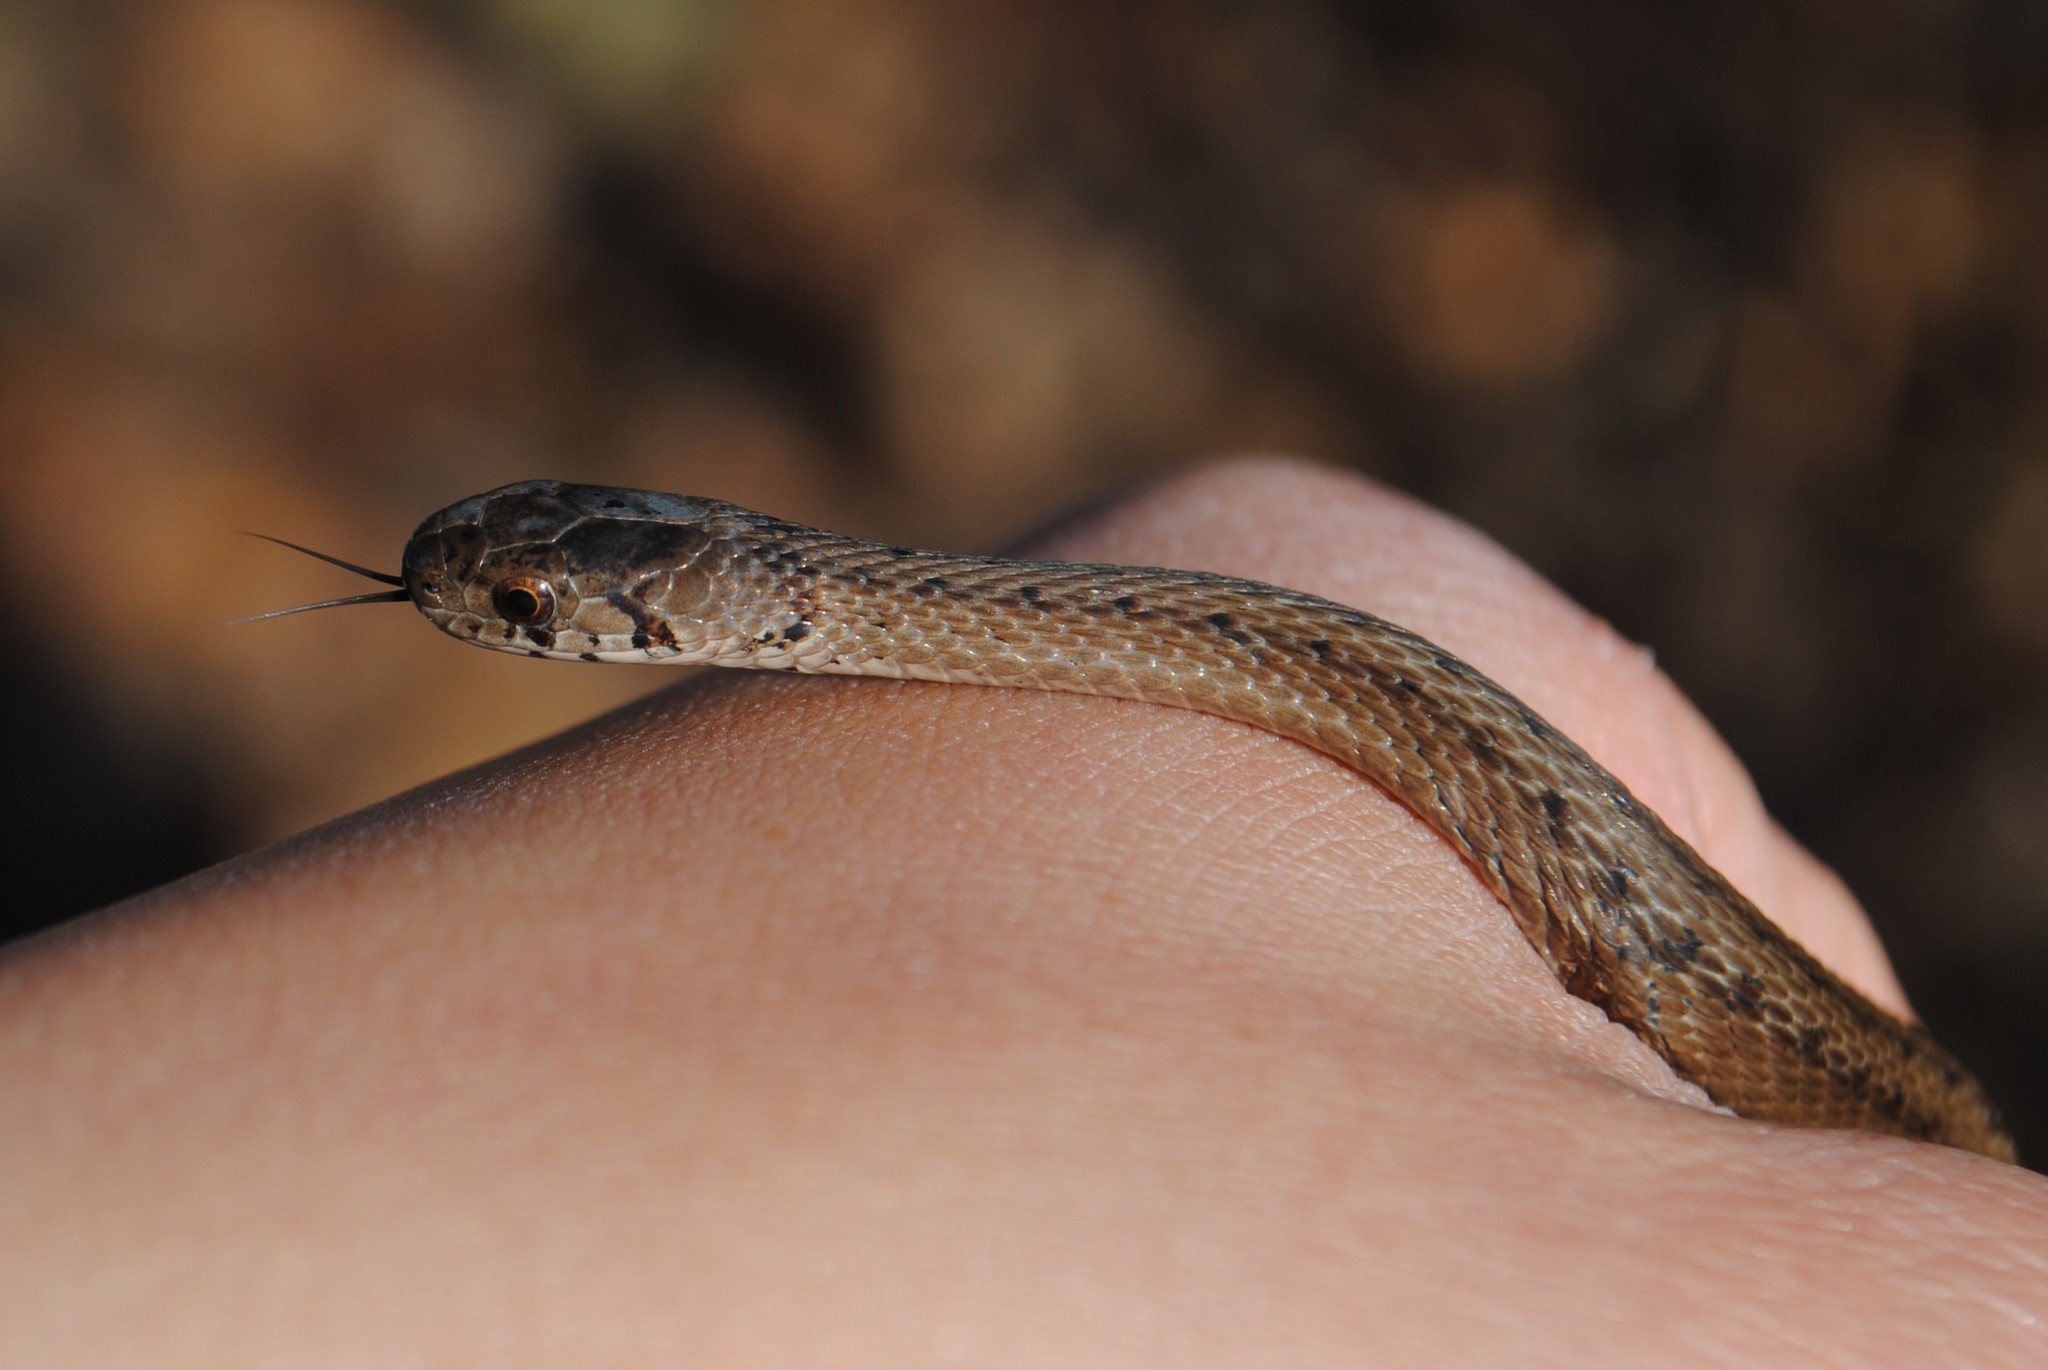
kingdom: Animalia
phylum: Chordata
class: Squamata
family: Colubridae
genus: Storeria
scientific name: Storeria dekayi
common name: (dekay’s) brown snake
